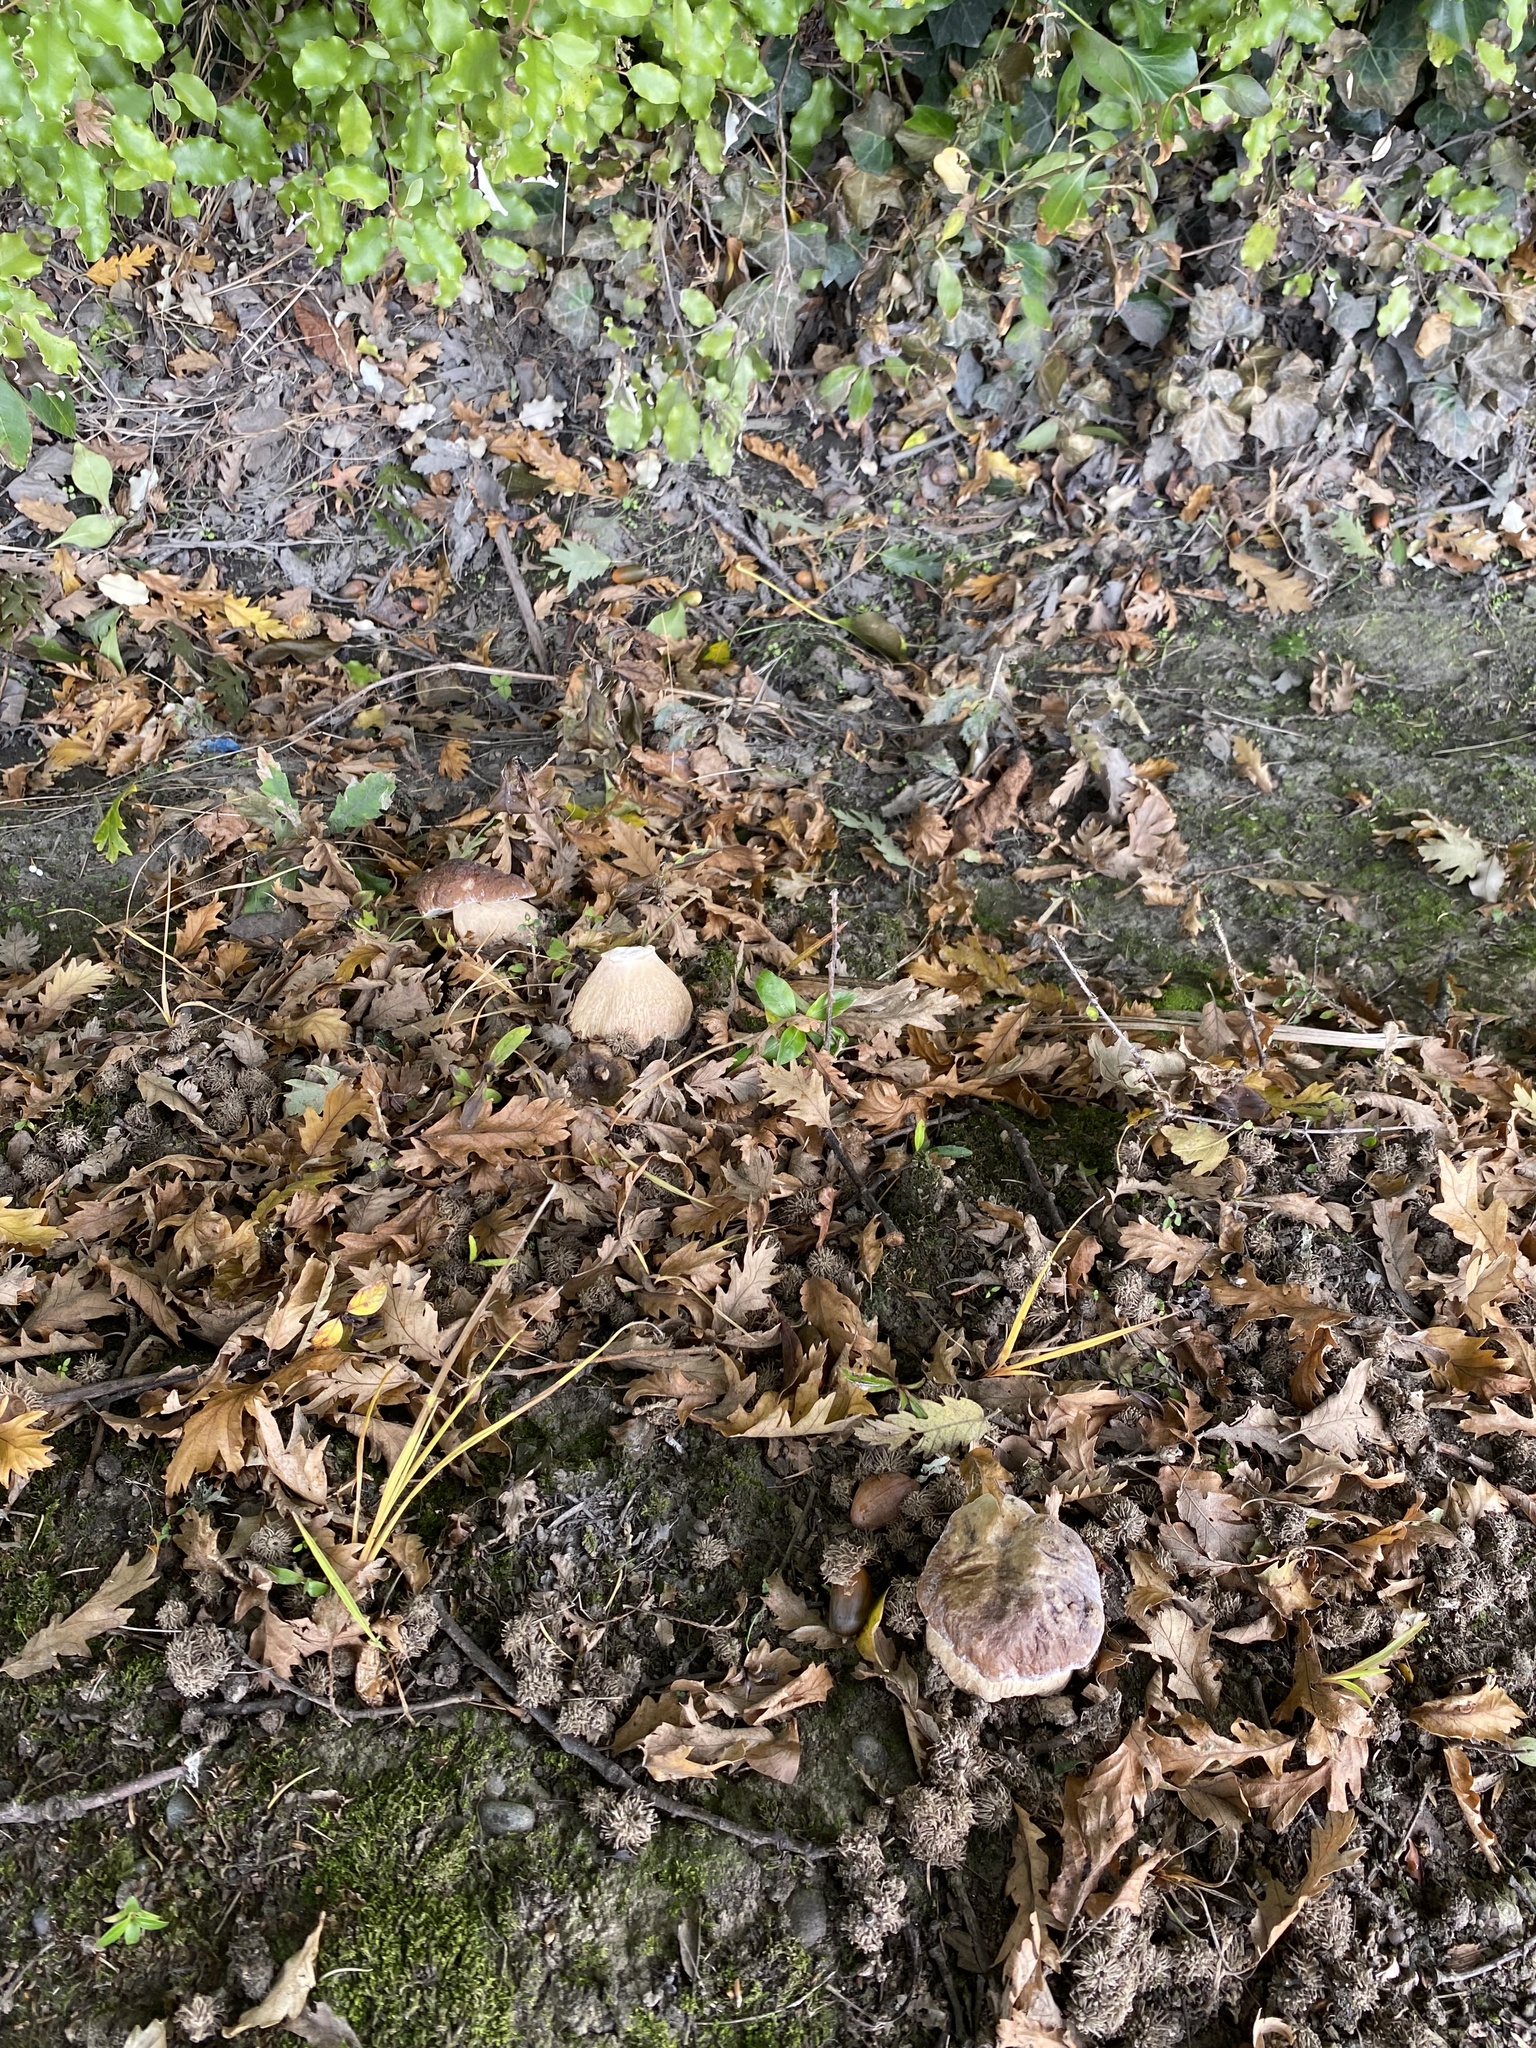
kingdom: Fungi
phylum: Basidiomycota
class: Agaricomycetes
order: Boletales
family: Boletaceae
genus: Boletus
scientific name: Boletus edulis
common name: Cep
